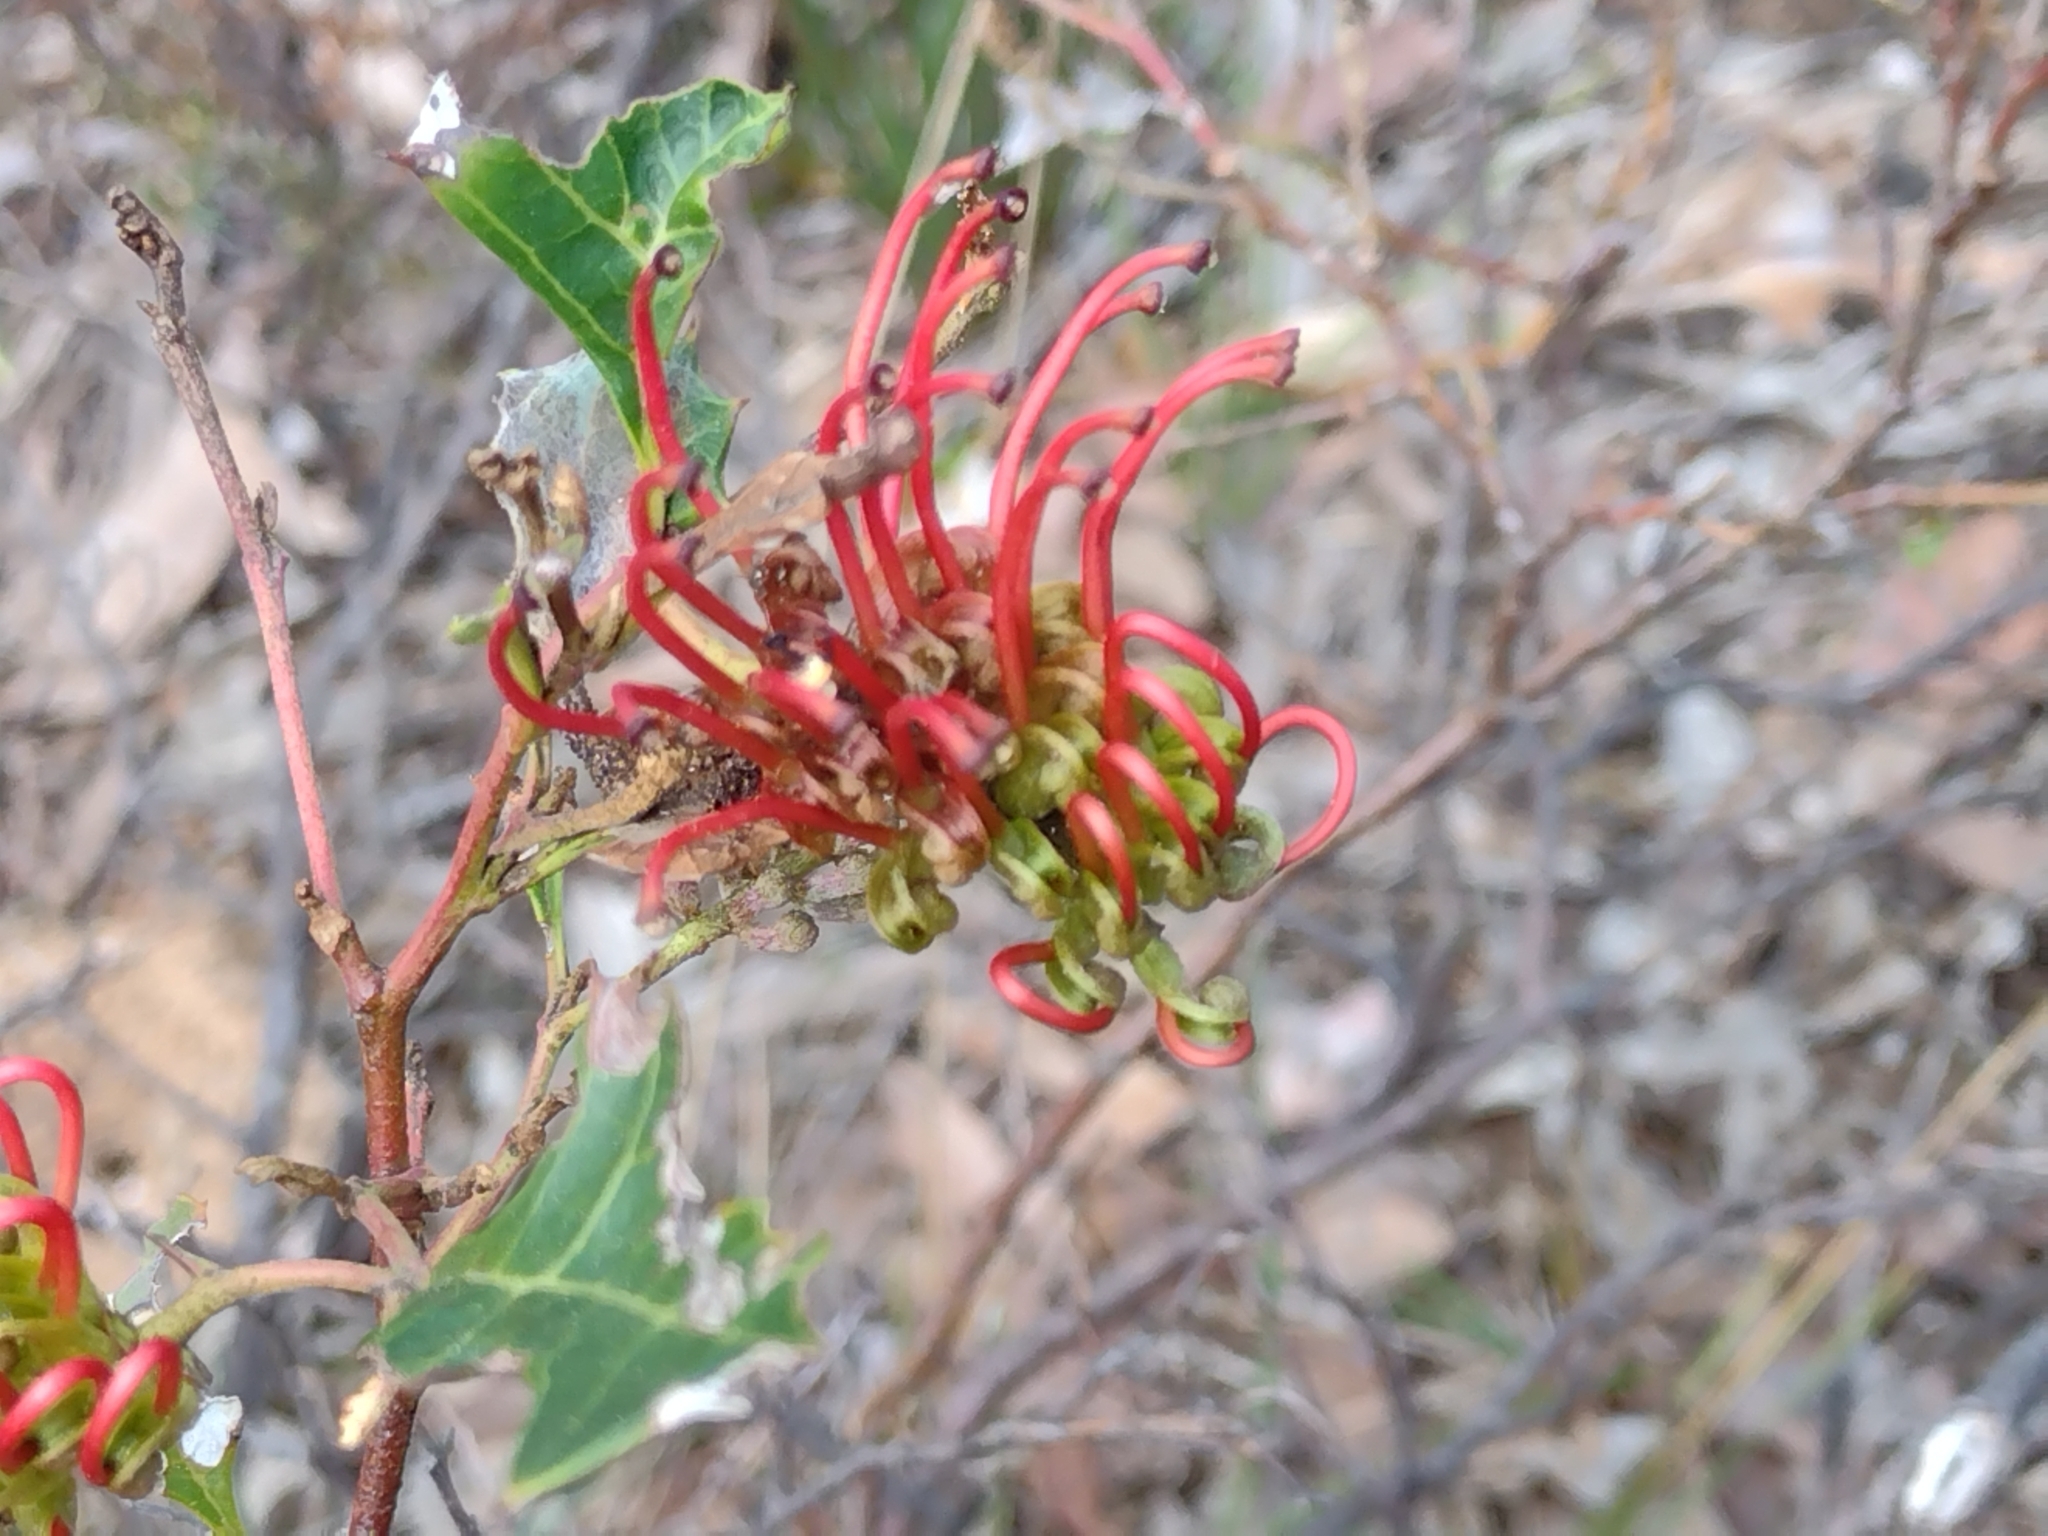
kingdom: Plantae
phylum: Tracheophyta
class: Magnoliopsida
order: Proteales
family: Proteaceae
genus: Grevillea
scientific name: Grevillea steiglitziana
